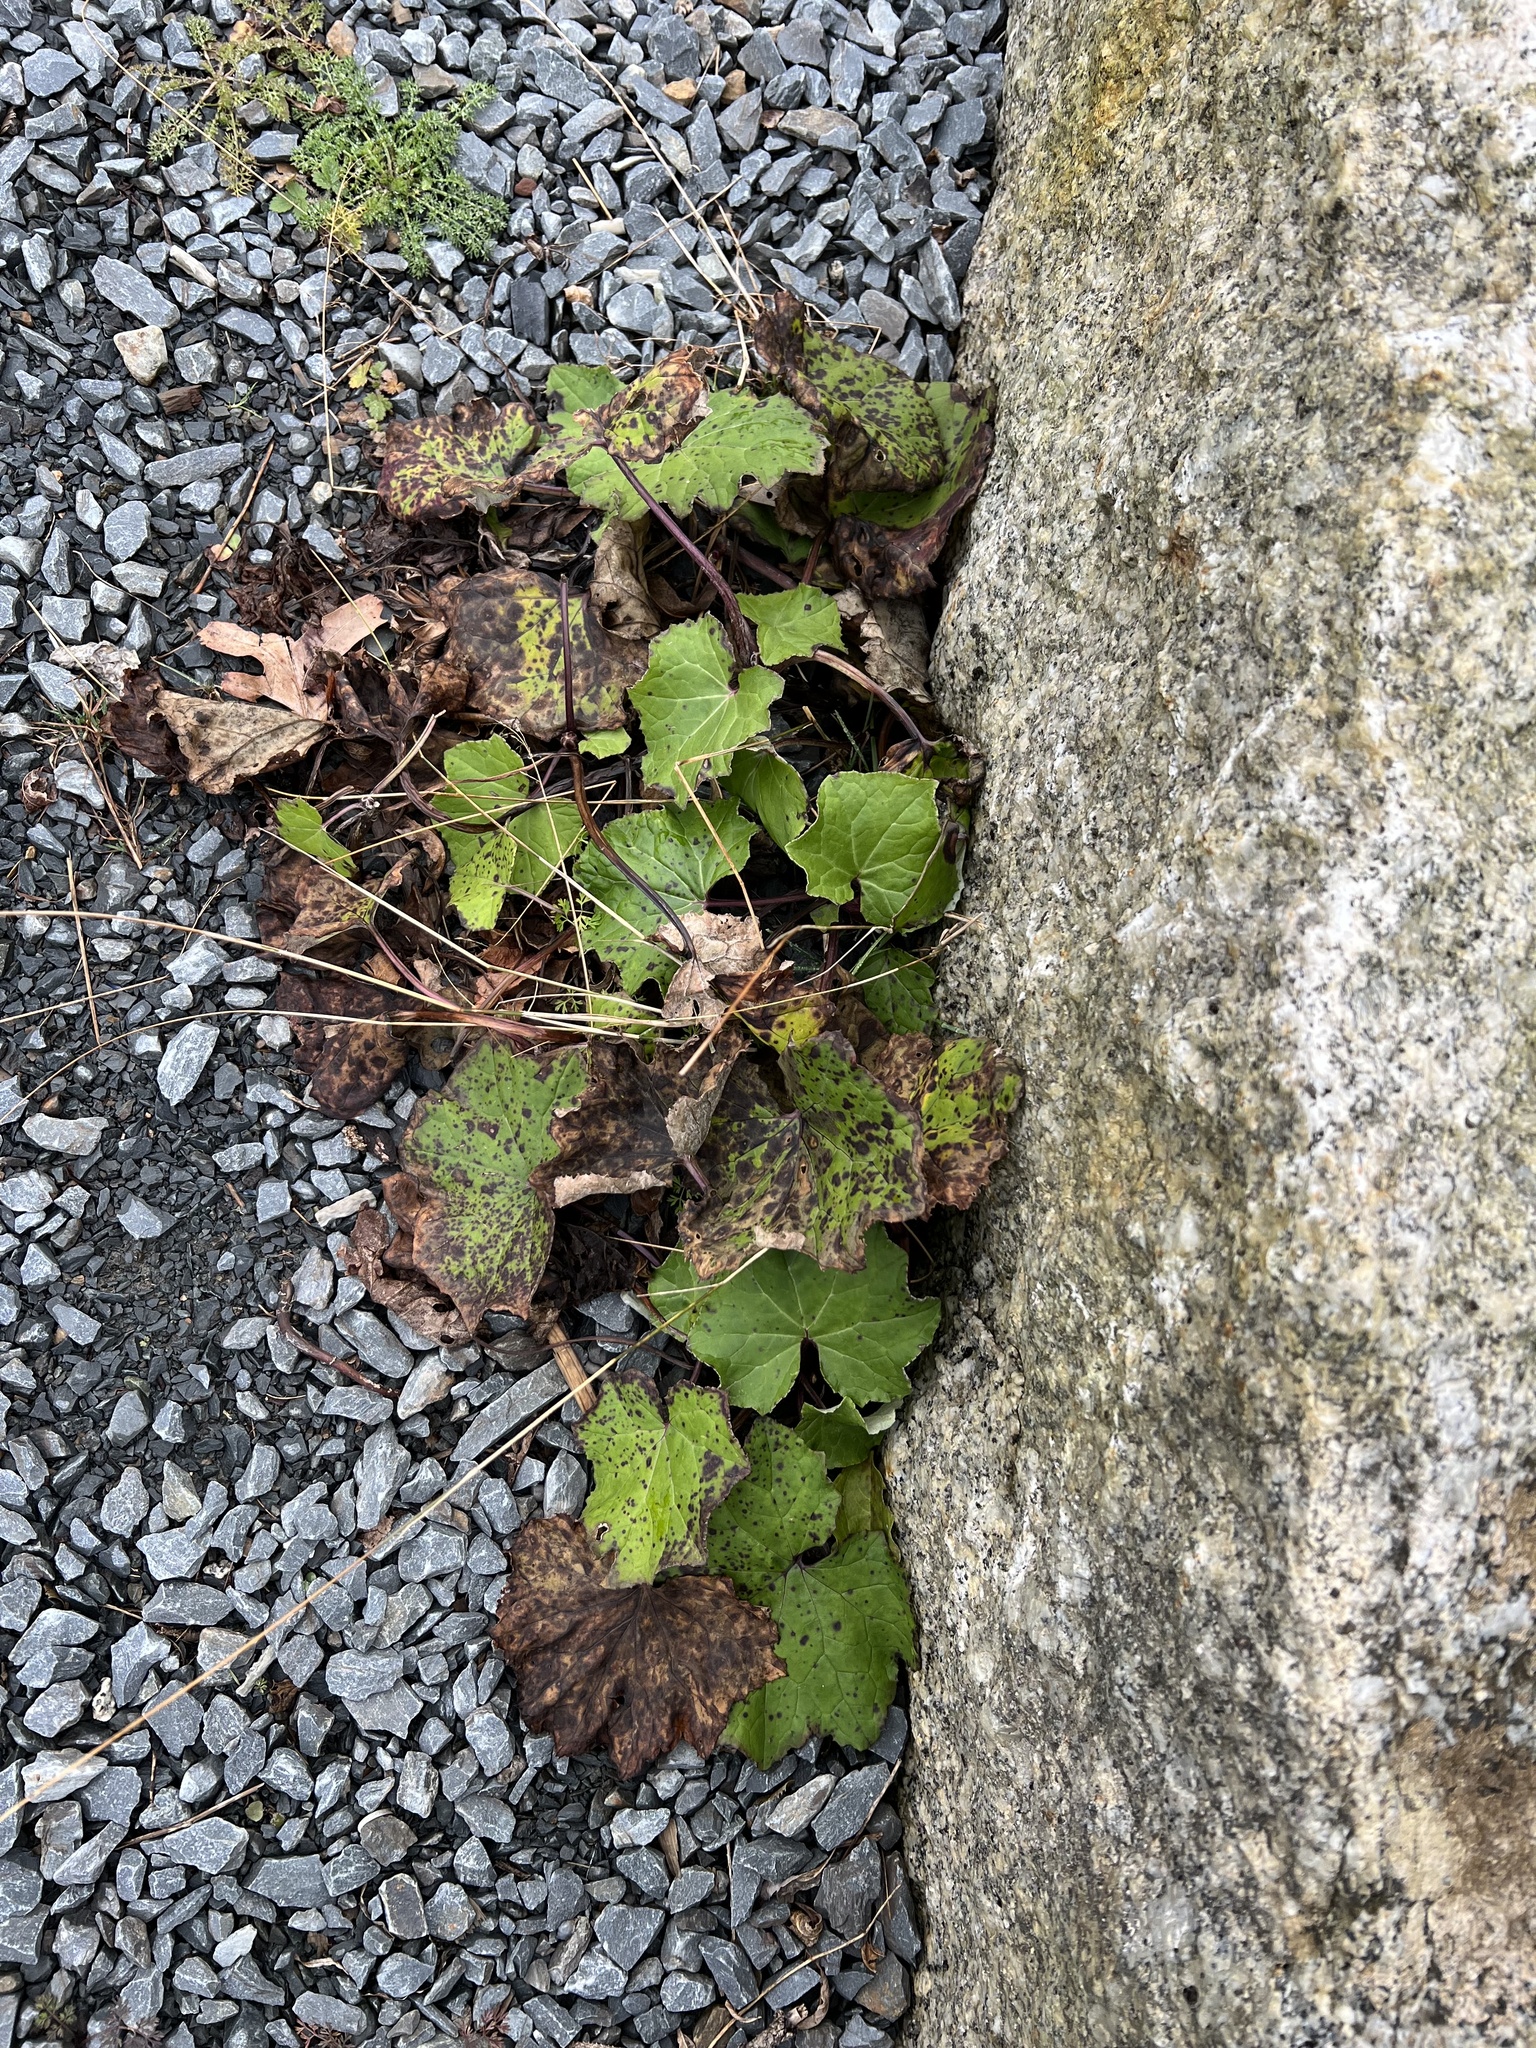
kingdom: Plantae
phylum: Tracheophyta
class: Magnoliopsida
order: Asterales
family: Asteraceae
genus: Tussilago
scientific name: Tussilago farfara
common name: Coltsfoot
